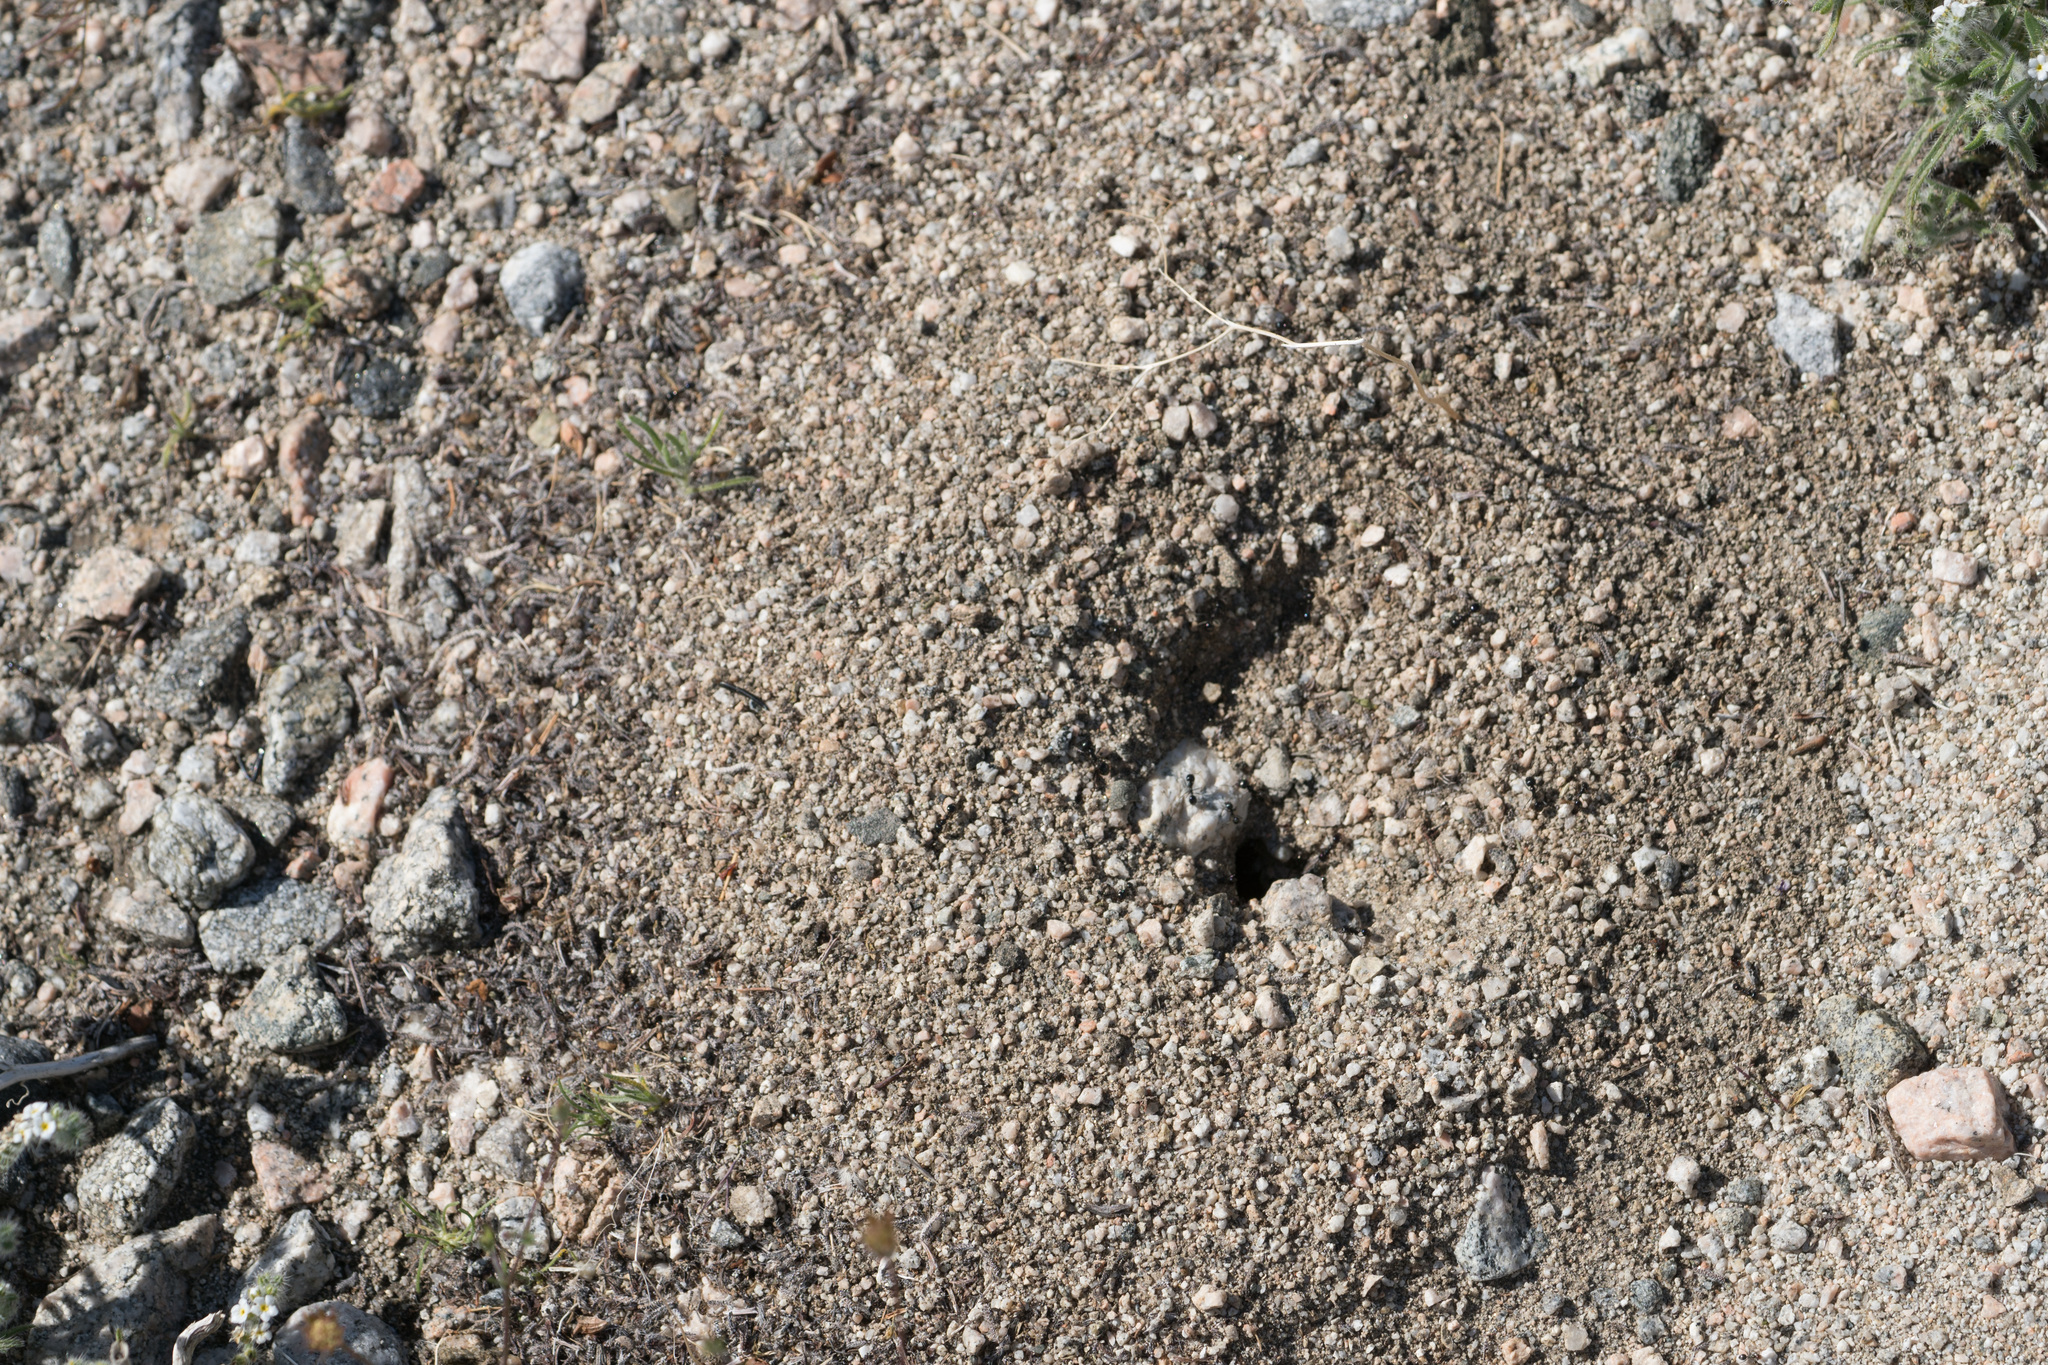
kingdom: Animalia
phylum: Arthropoda
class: Insecta
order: Hymenoptera
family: Formicidae
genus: Messor
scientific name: Messor pergandei
